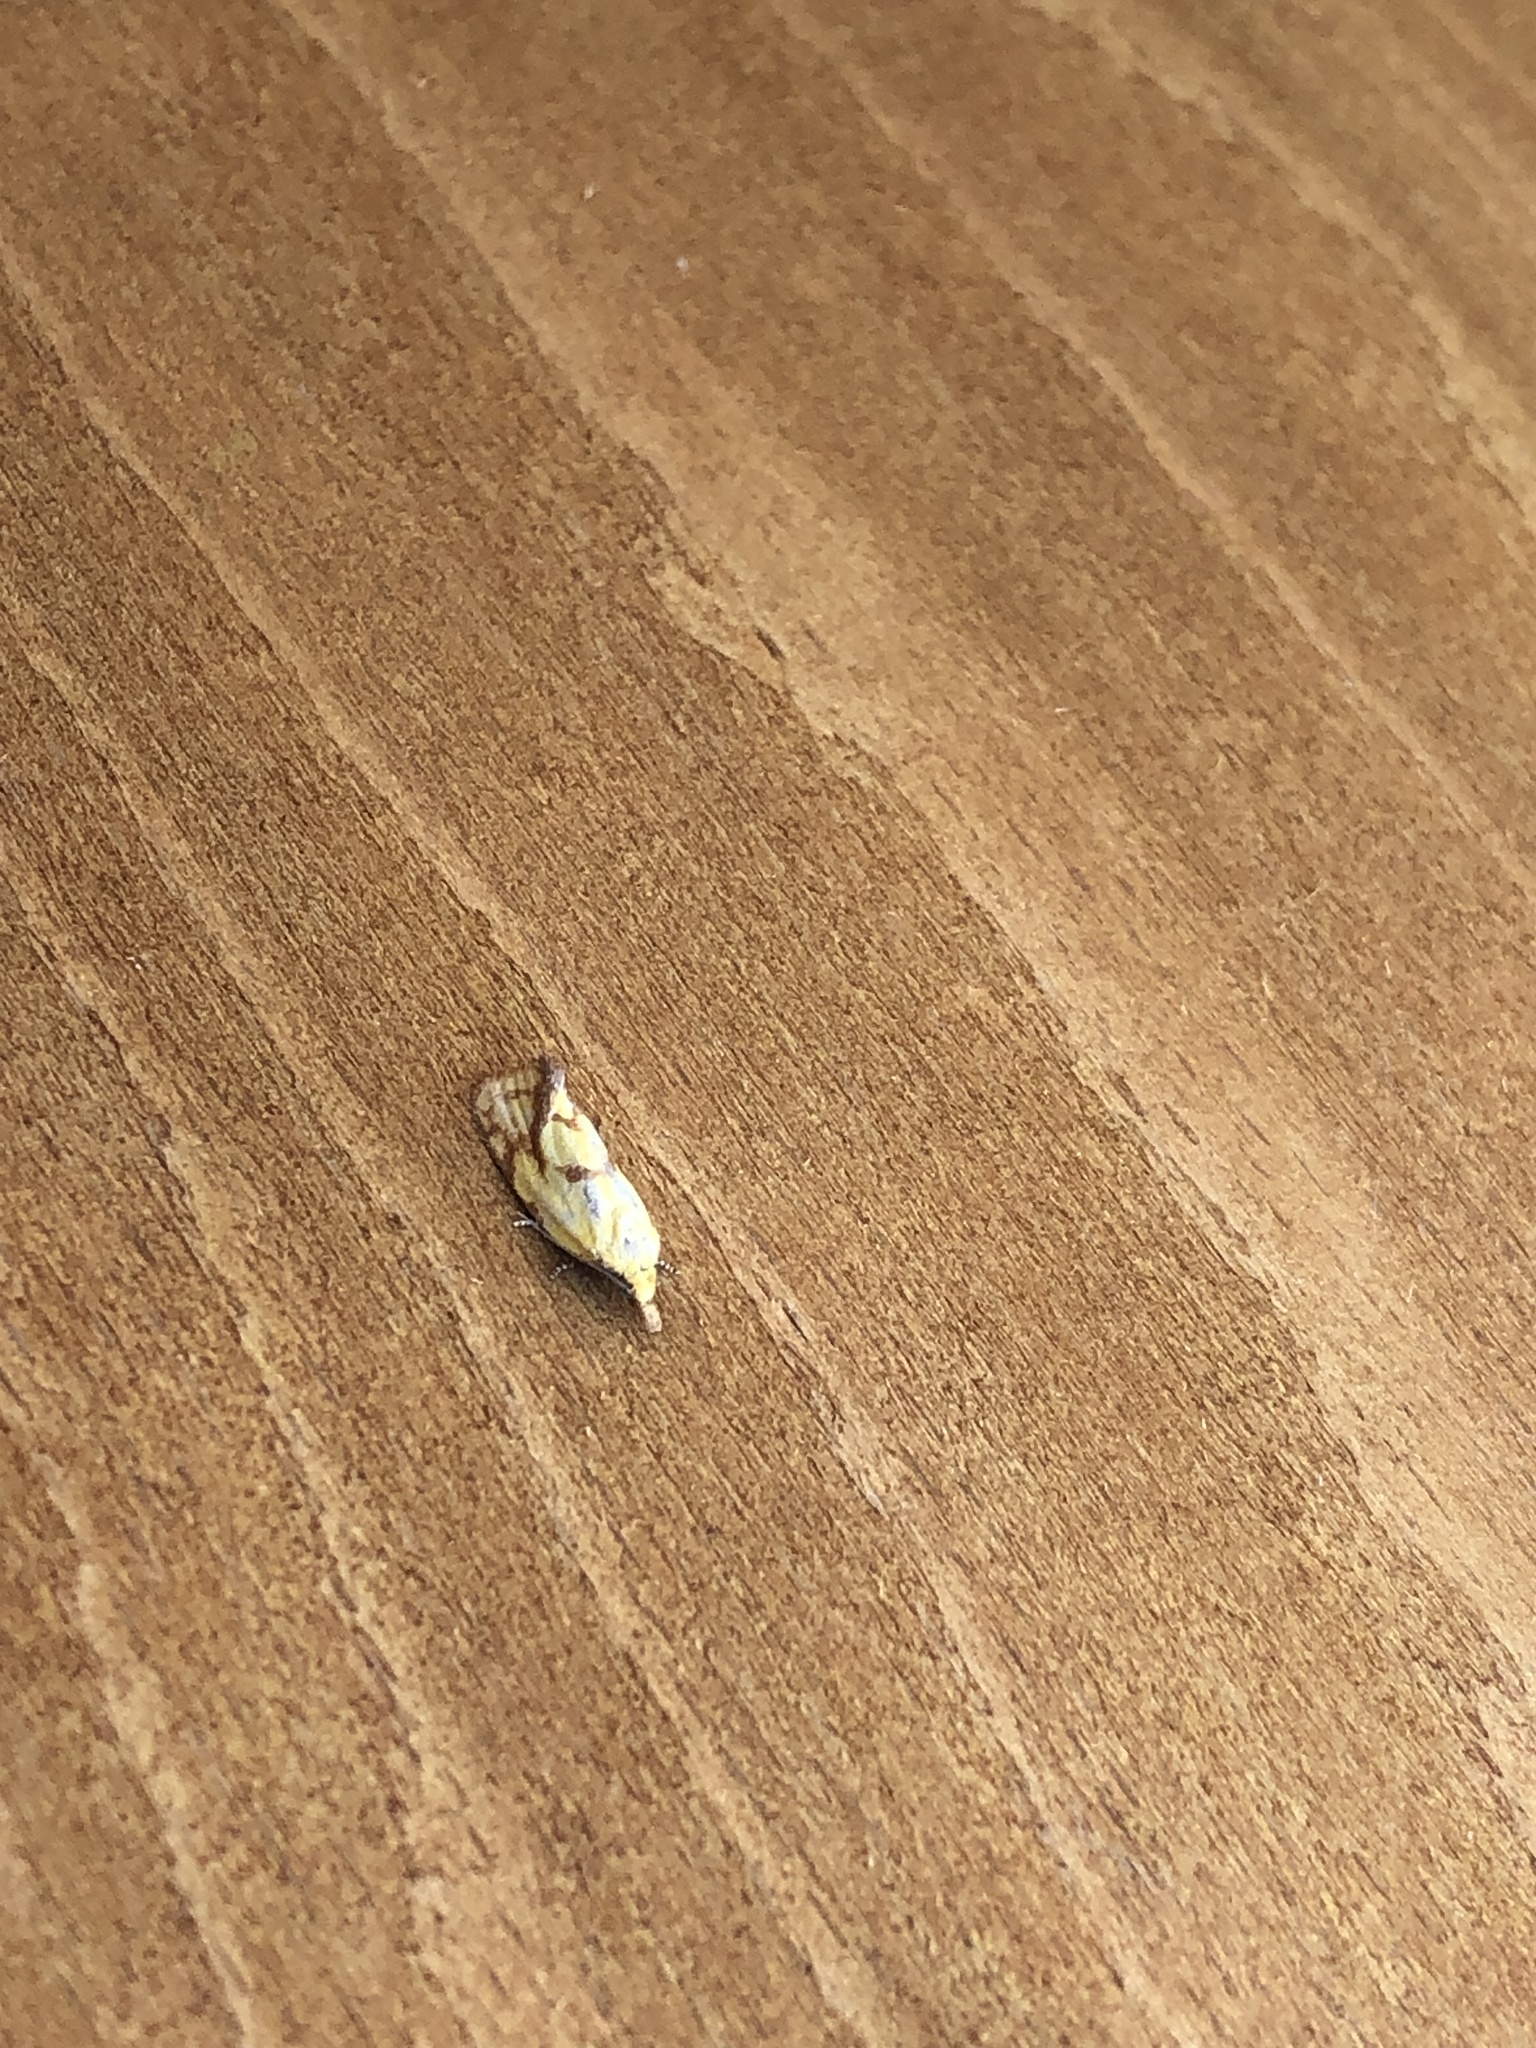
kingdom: Animalia
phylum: Arthropoda
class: Insecta
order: Lepidoptera
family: Tortricidae
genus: Agapeta
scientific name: Agapeta hamana
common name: Common yellow conch
